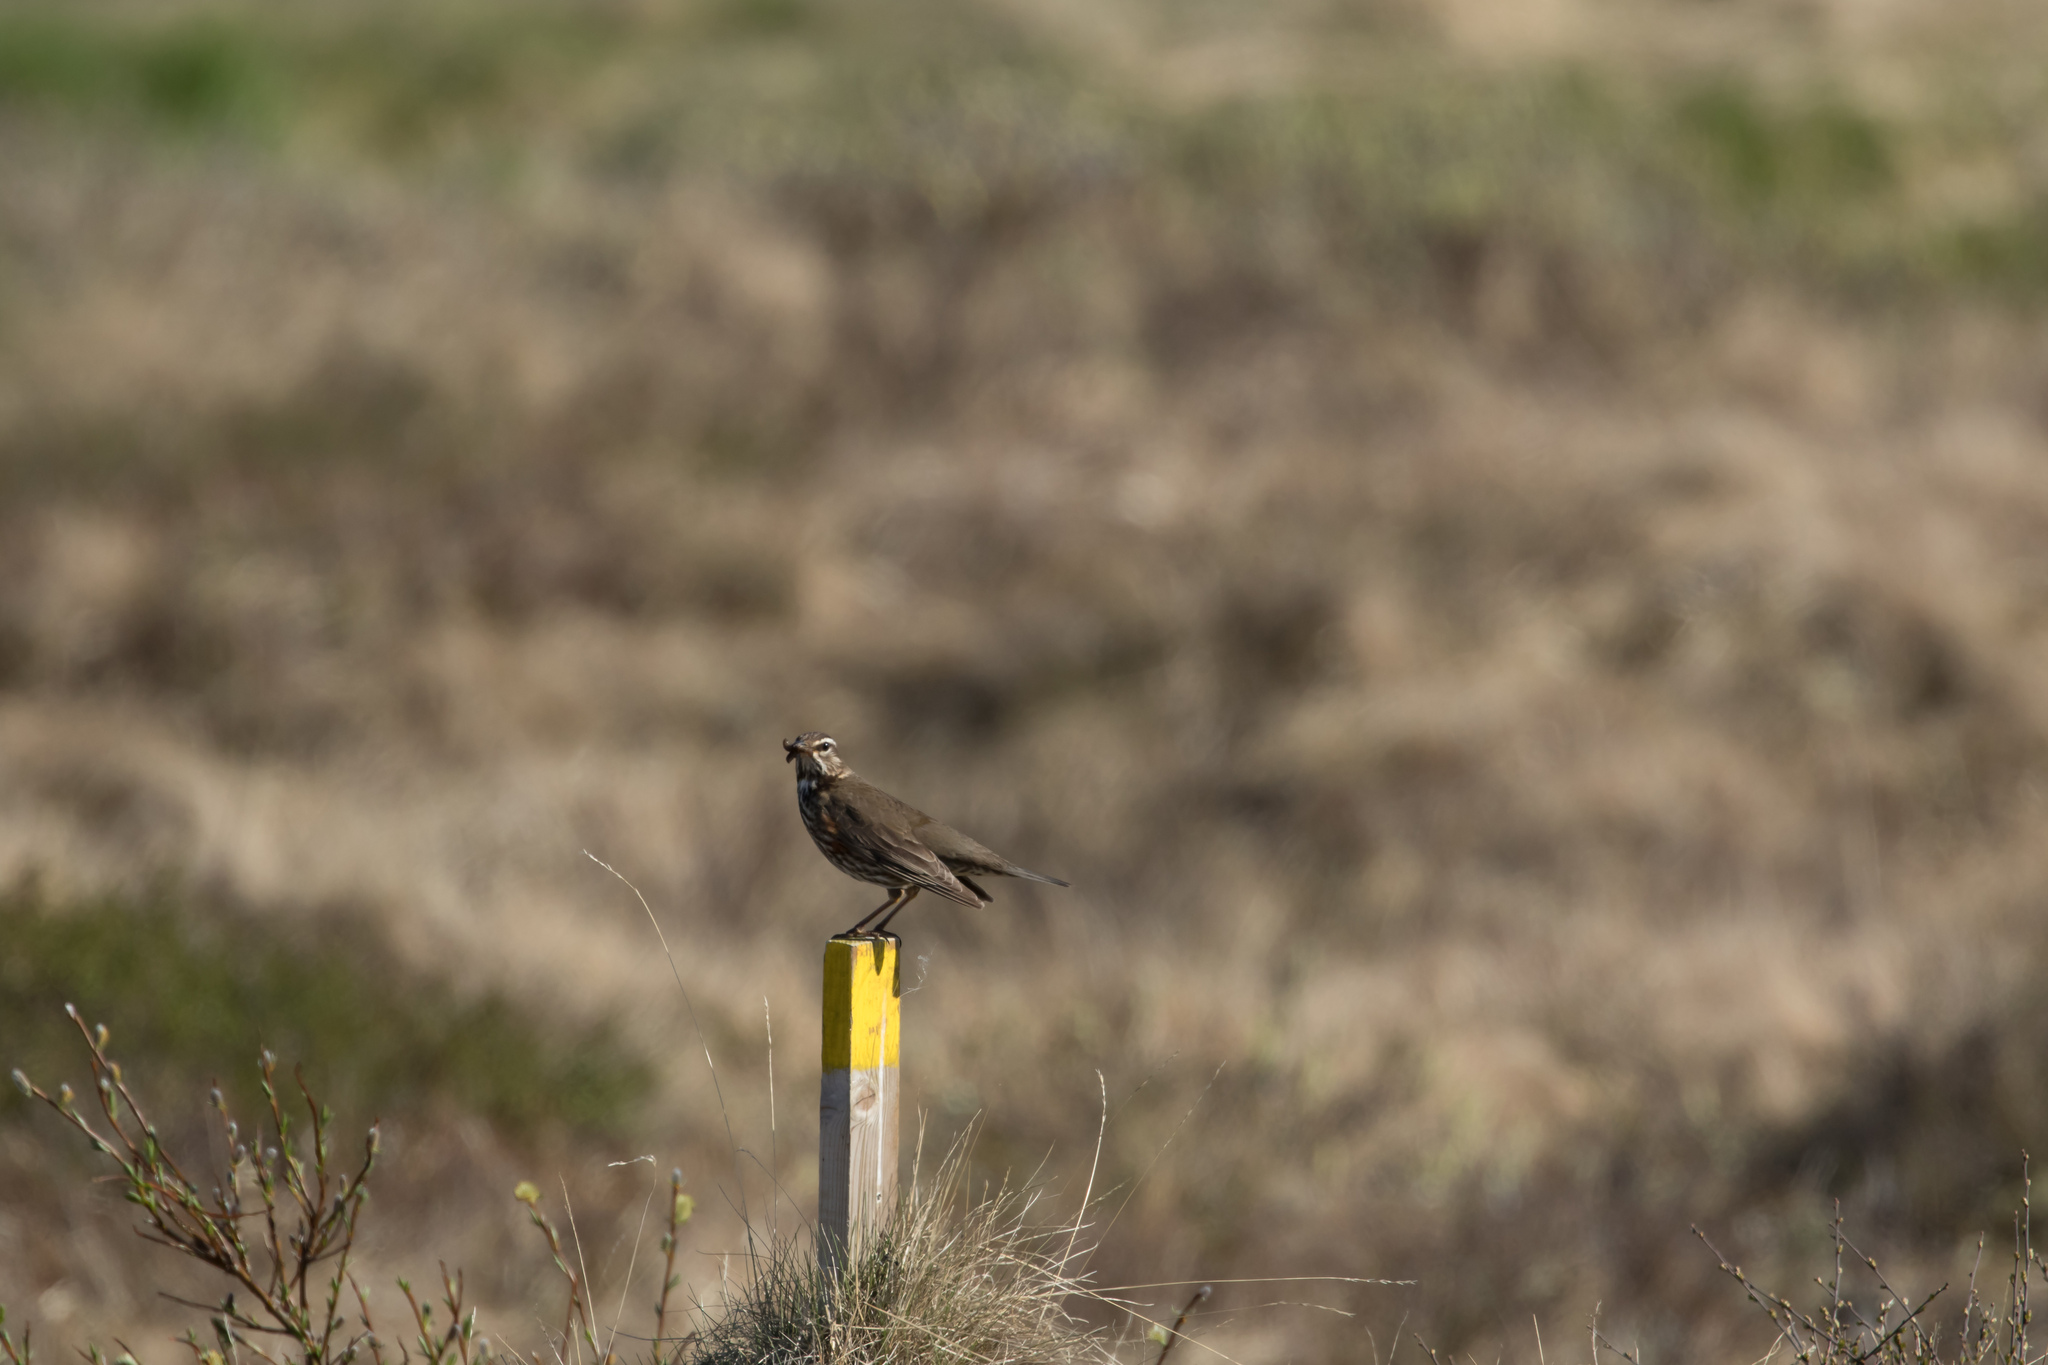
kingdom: Animalia
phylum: Chordata
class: Aves
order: Passeriformes
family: Turdidae
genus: Turdus
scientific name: Turdus iliacus
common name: Redwing
